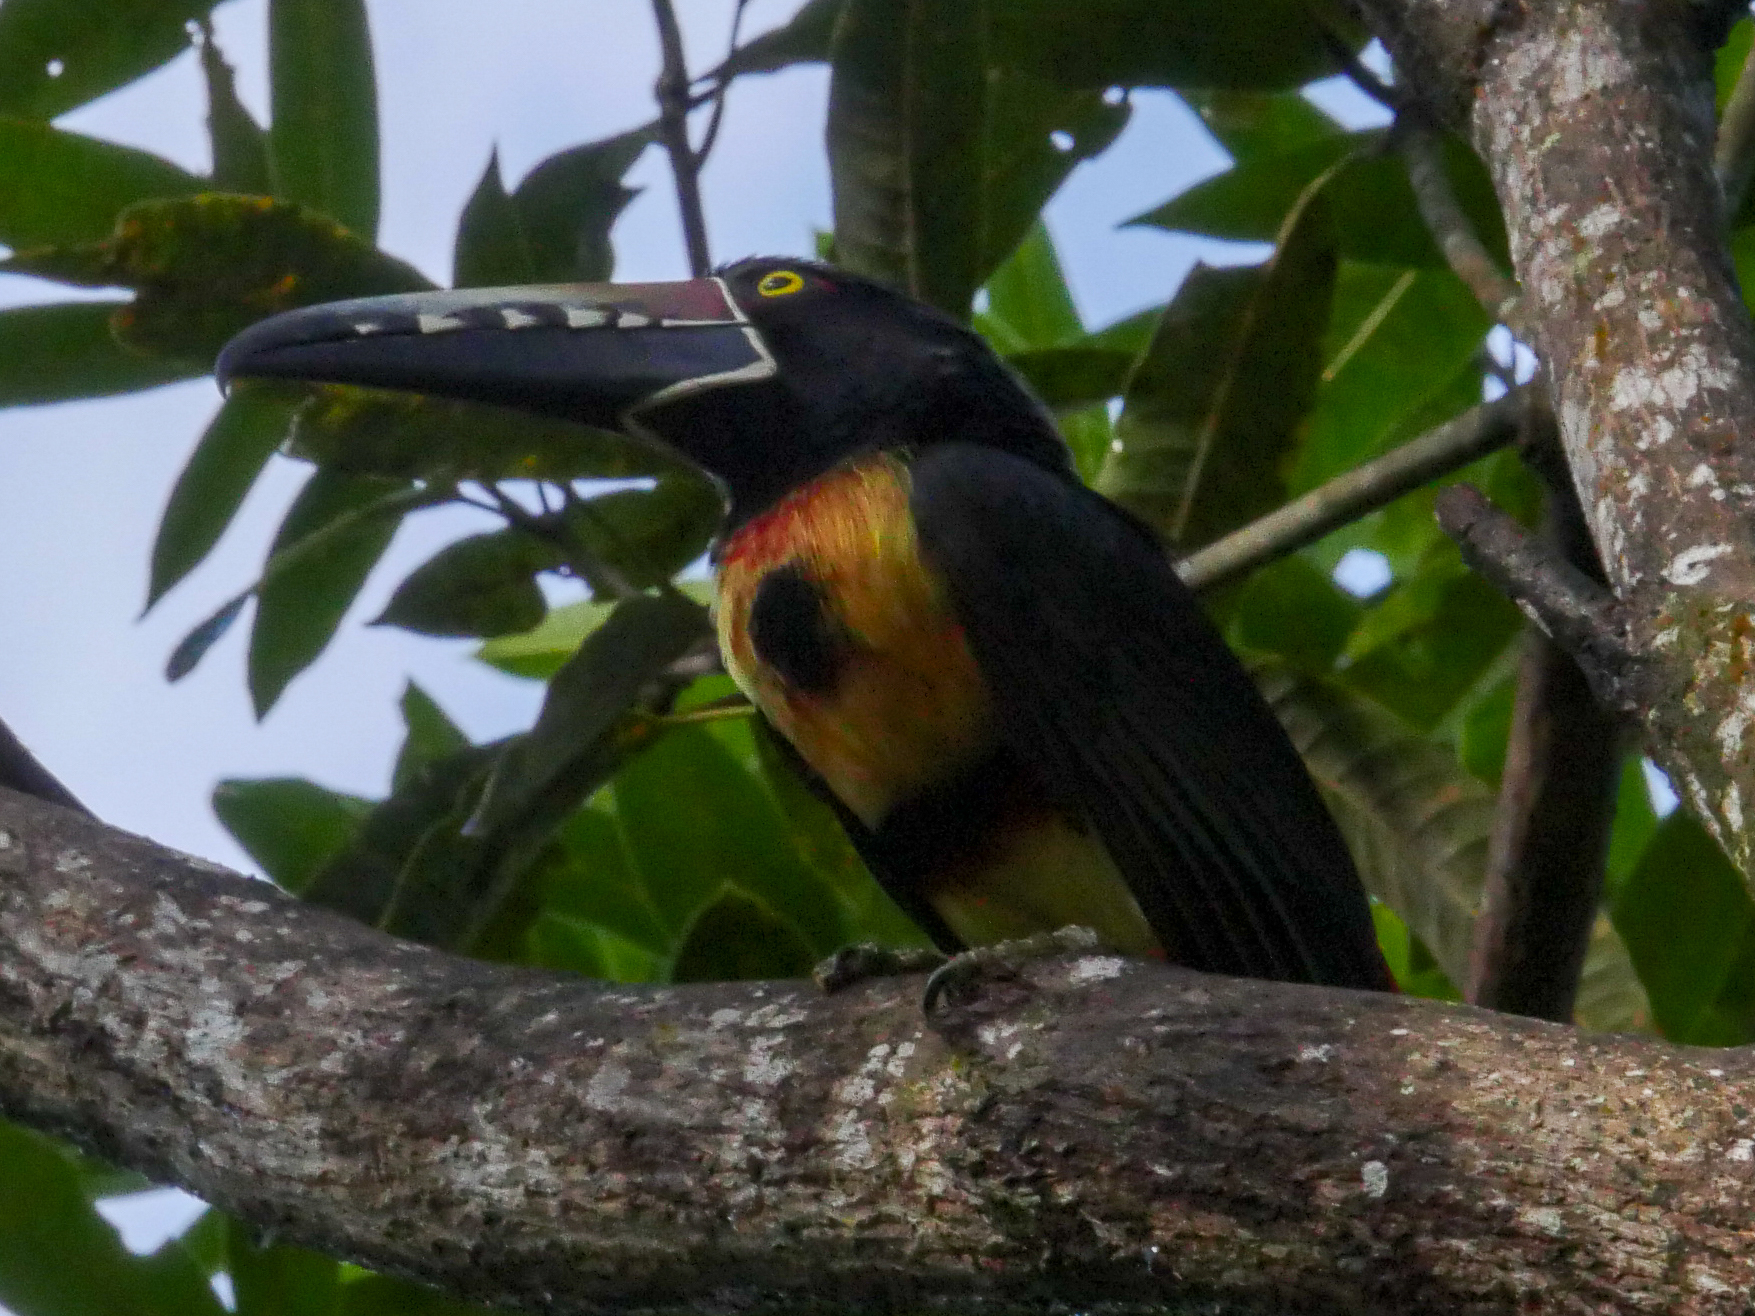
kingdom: Animalia
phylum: Chordata
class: Aves
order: Piciformes
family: Ramphastidae
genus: Pteroglossus
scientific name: Pteroglossus torquatus
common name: Collared aracari
